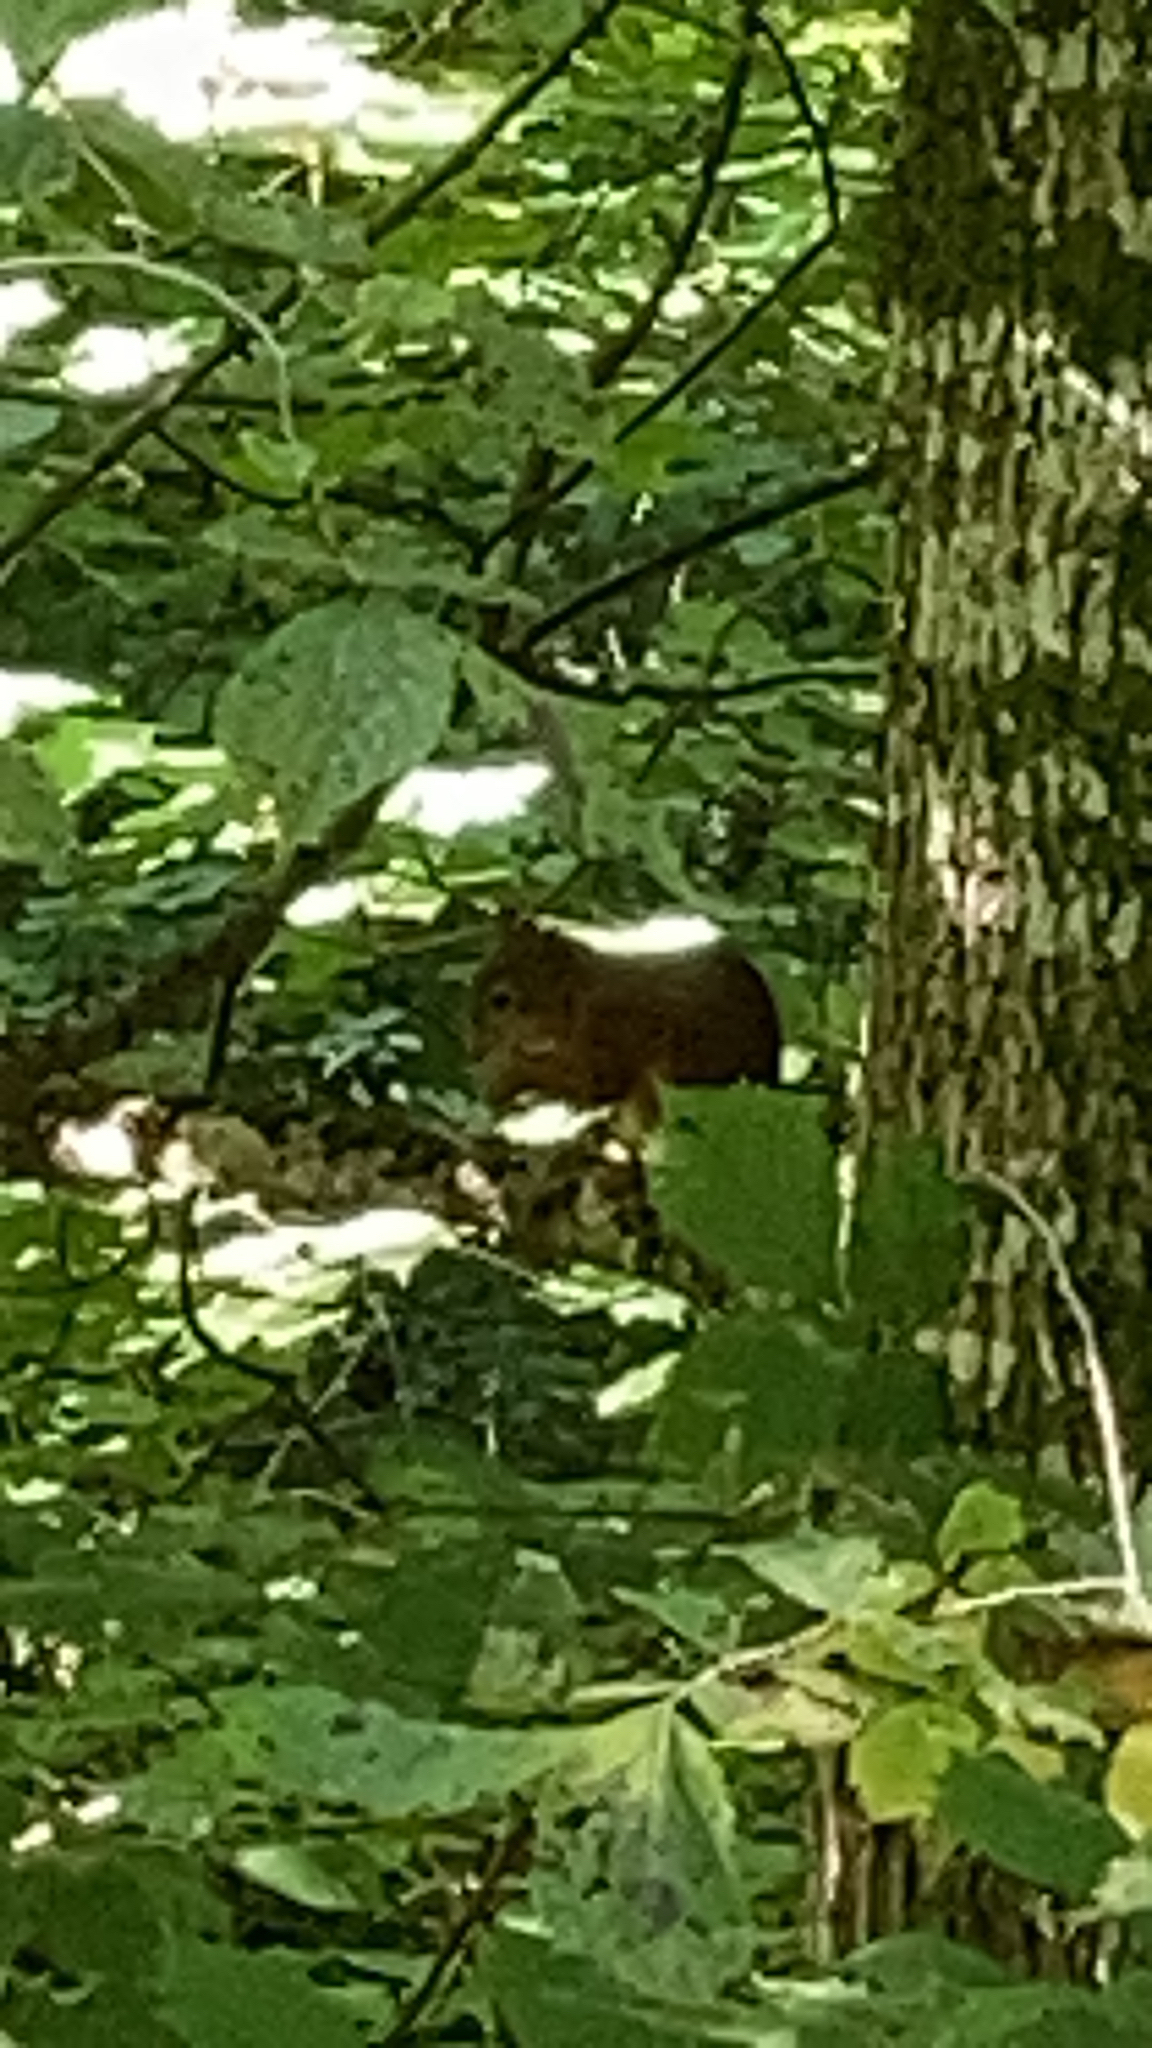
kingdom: Animalia
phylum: Chordata
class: Mammalia
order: Rodentia
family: Sciuridae
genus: Sciurus
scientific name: Sciurus vulgaris
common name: Eurasian red squirrel
